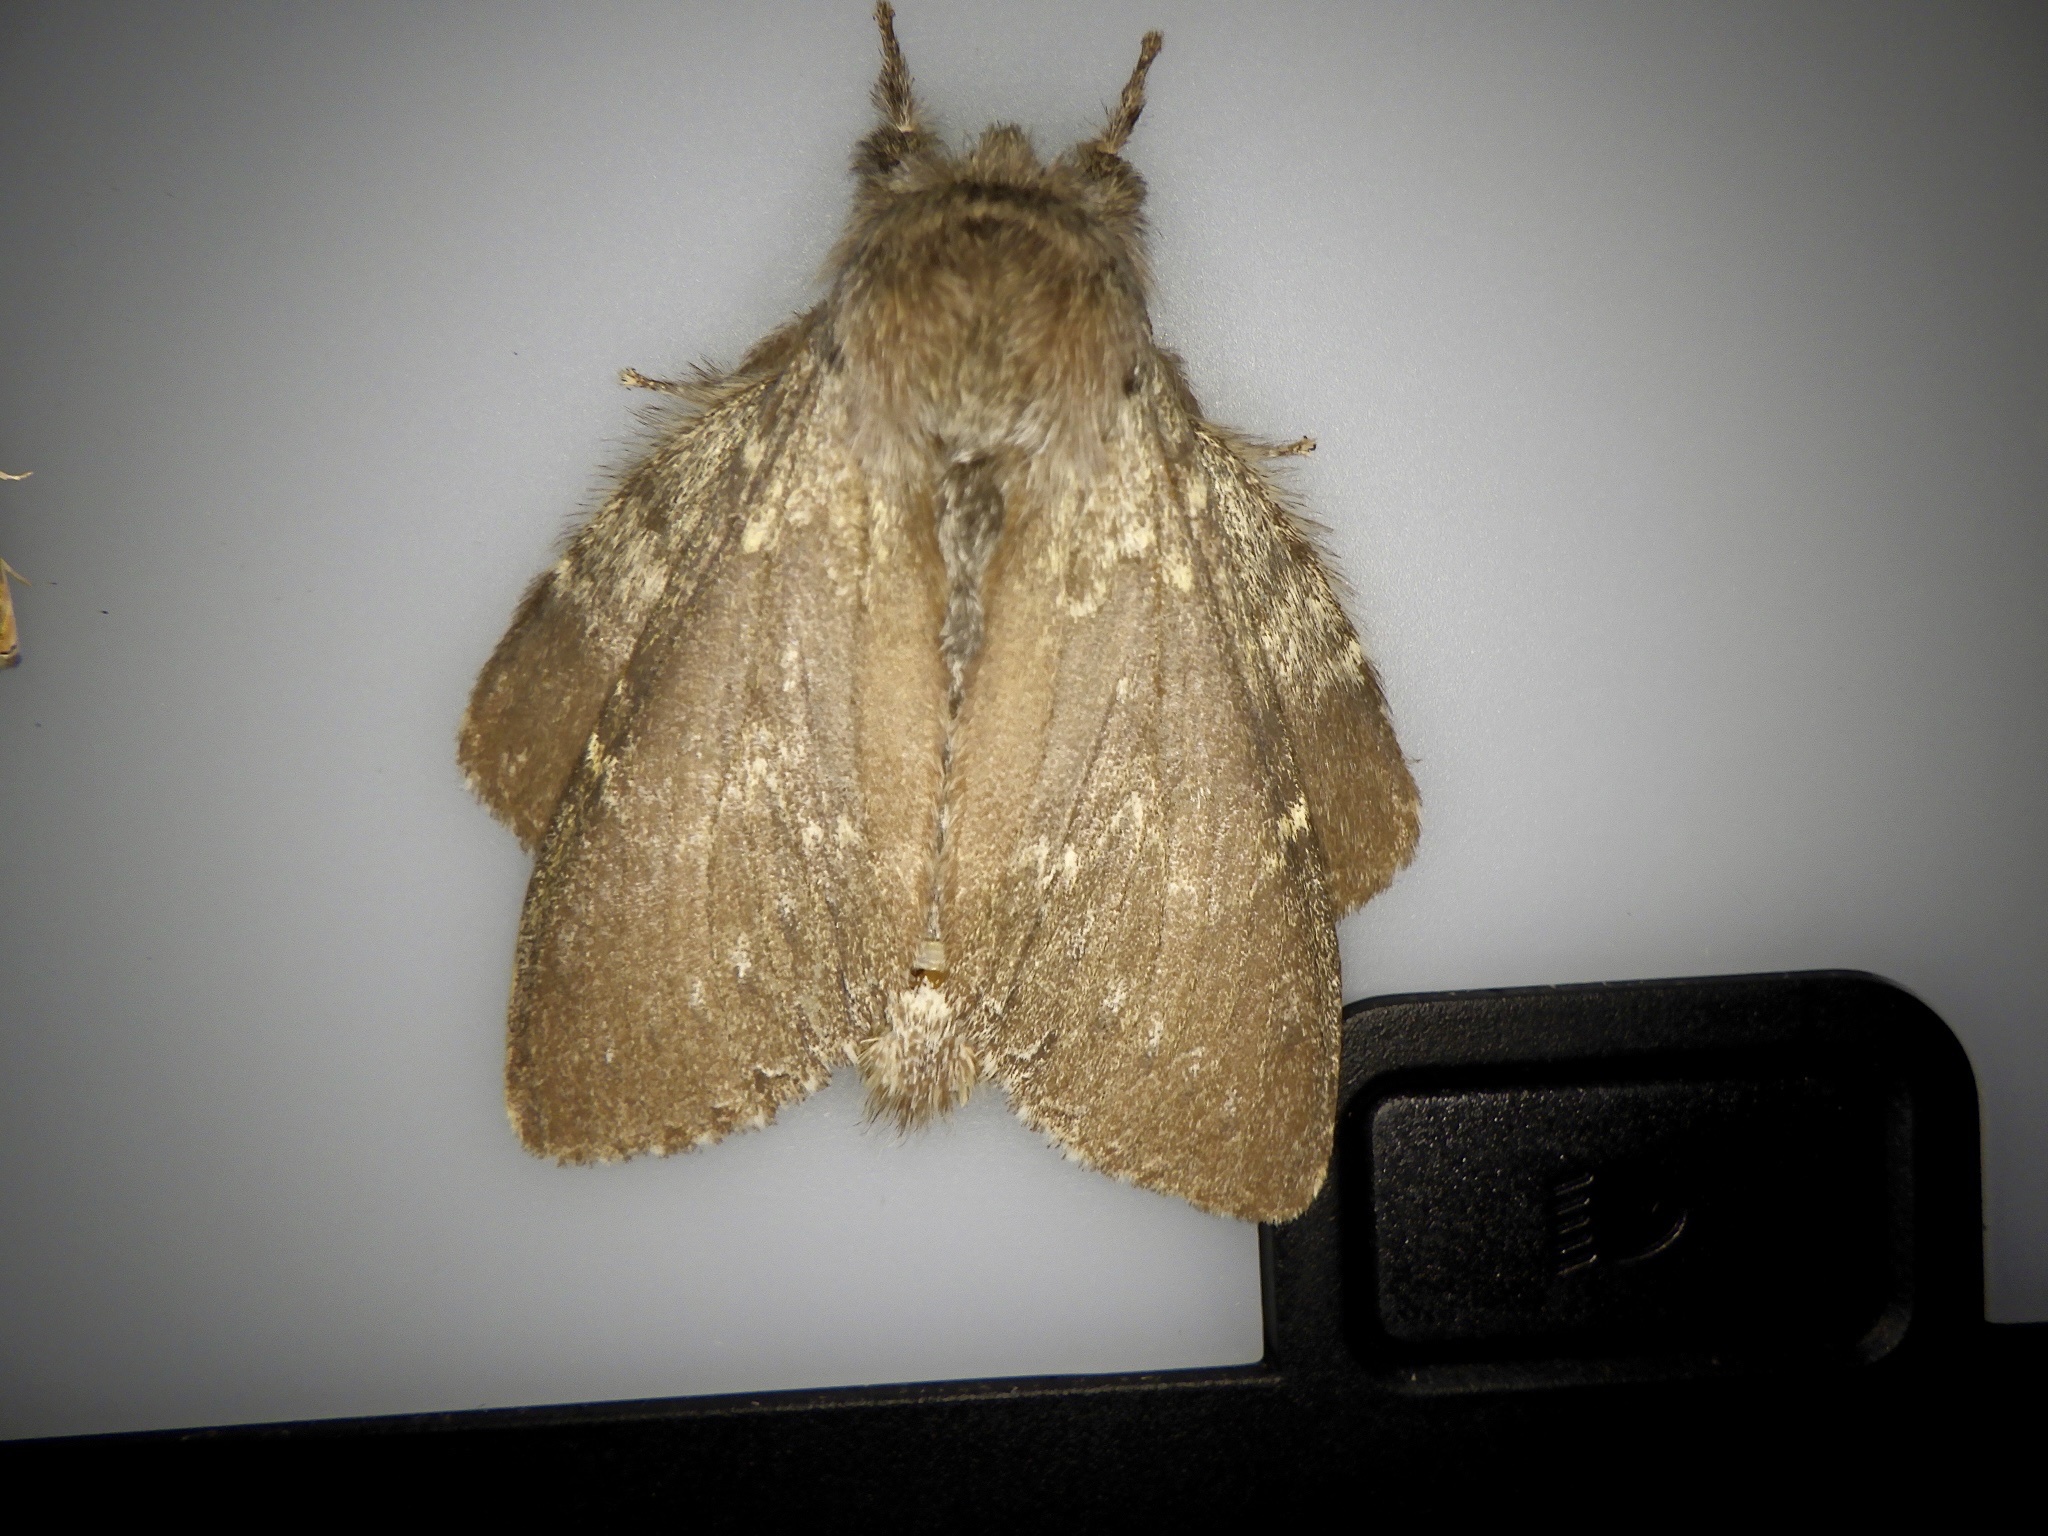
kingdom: Animalia
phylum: Arthropoda
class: Insecta
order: Lepidoptera
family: Notodontidae
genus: Stauropus
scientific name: Stauropus fagi
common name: Lobster moth
